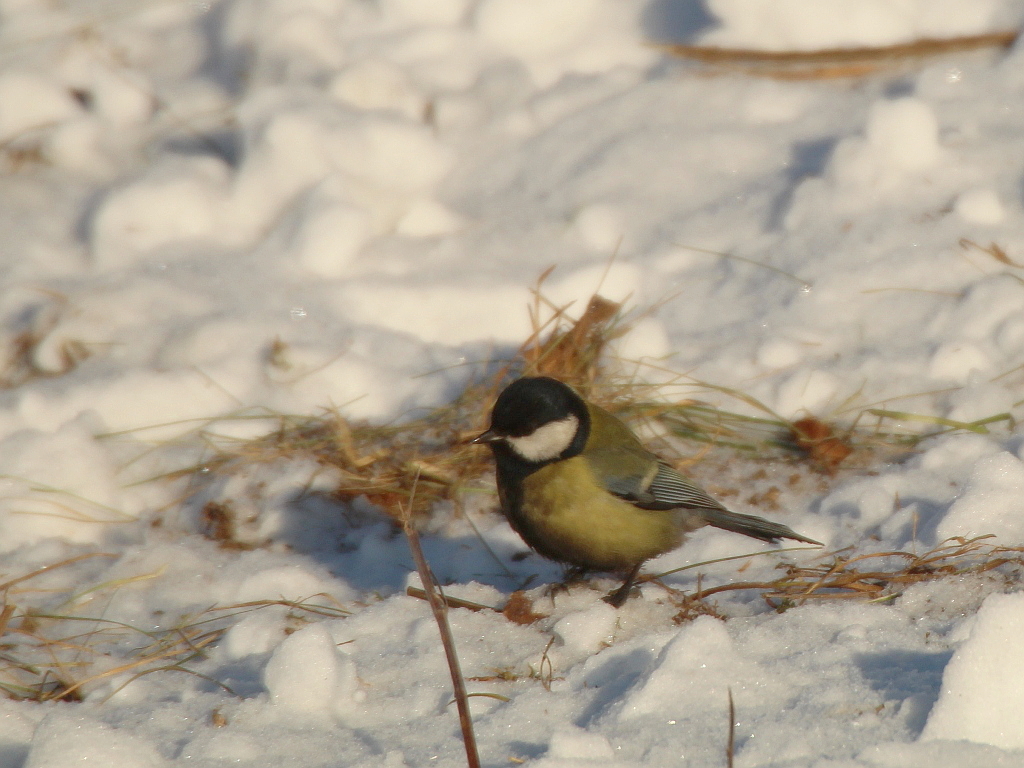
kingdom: Animalia
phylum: Chordata
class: Aves
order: Passeriformes
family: Paridae
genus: Parus
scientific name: Parus major
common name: Great tit
